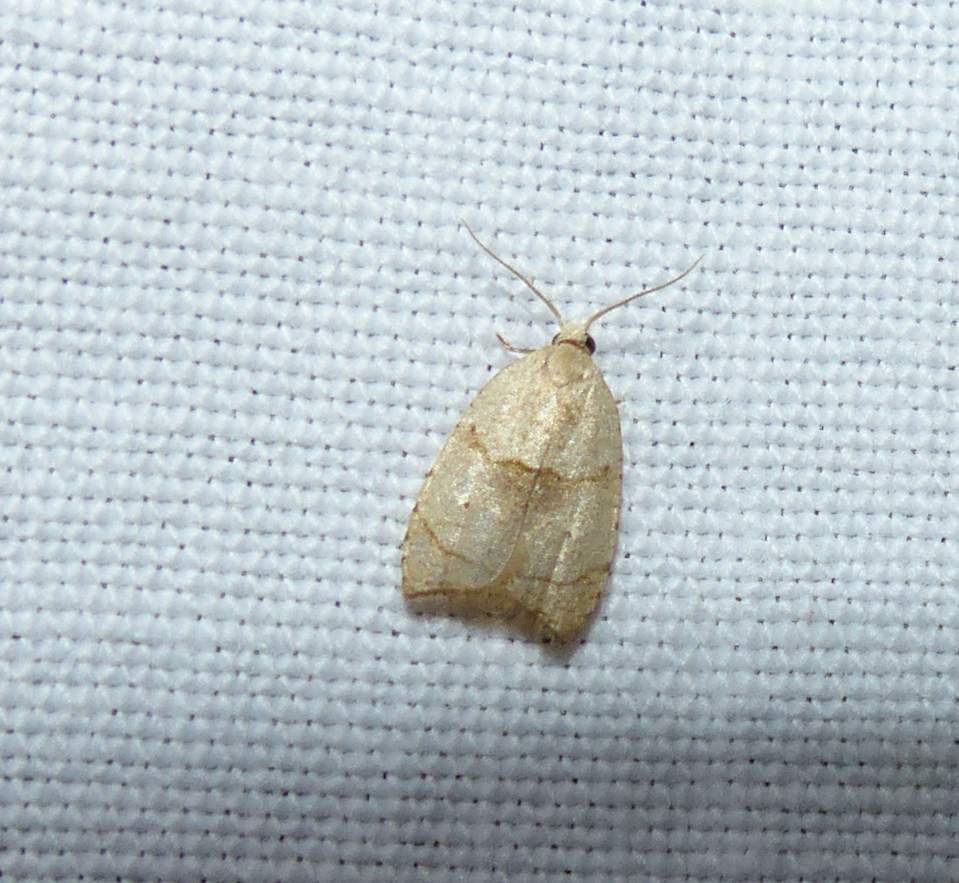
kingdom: Animalia
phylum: Arthropoda
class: Insecta
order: Lepidoptera
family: Tortricidae
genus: Coelostathma
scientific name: Coelostathma discopunctana
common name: Batman moth
